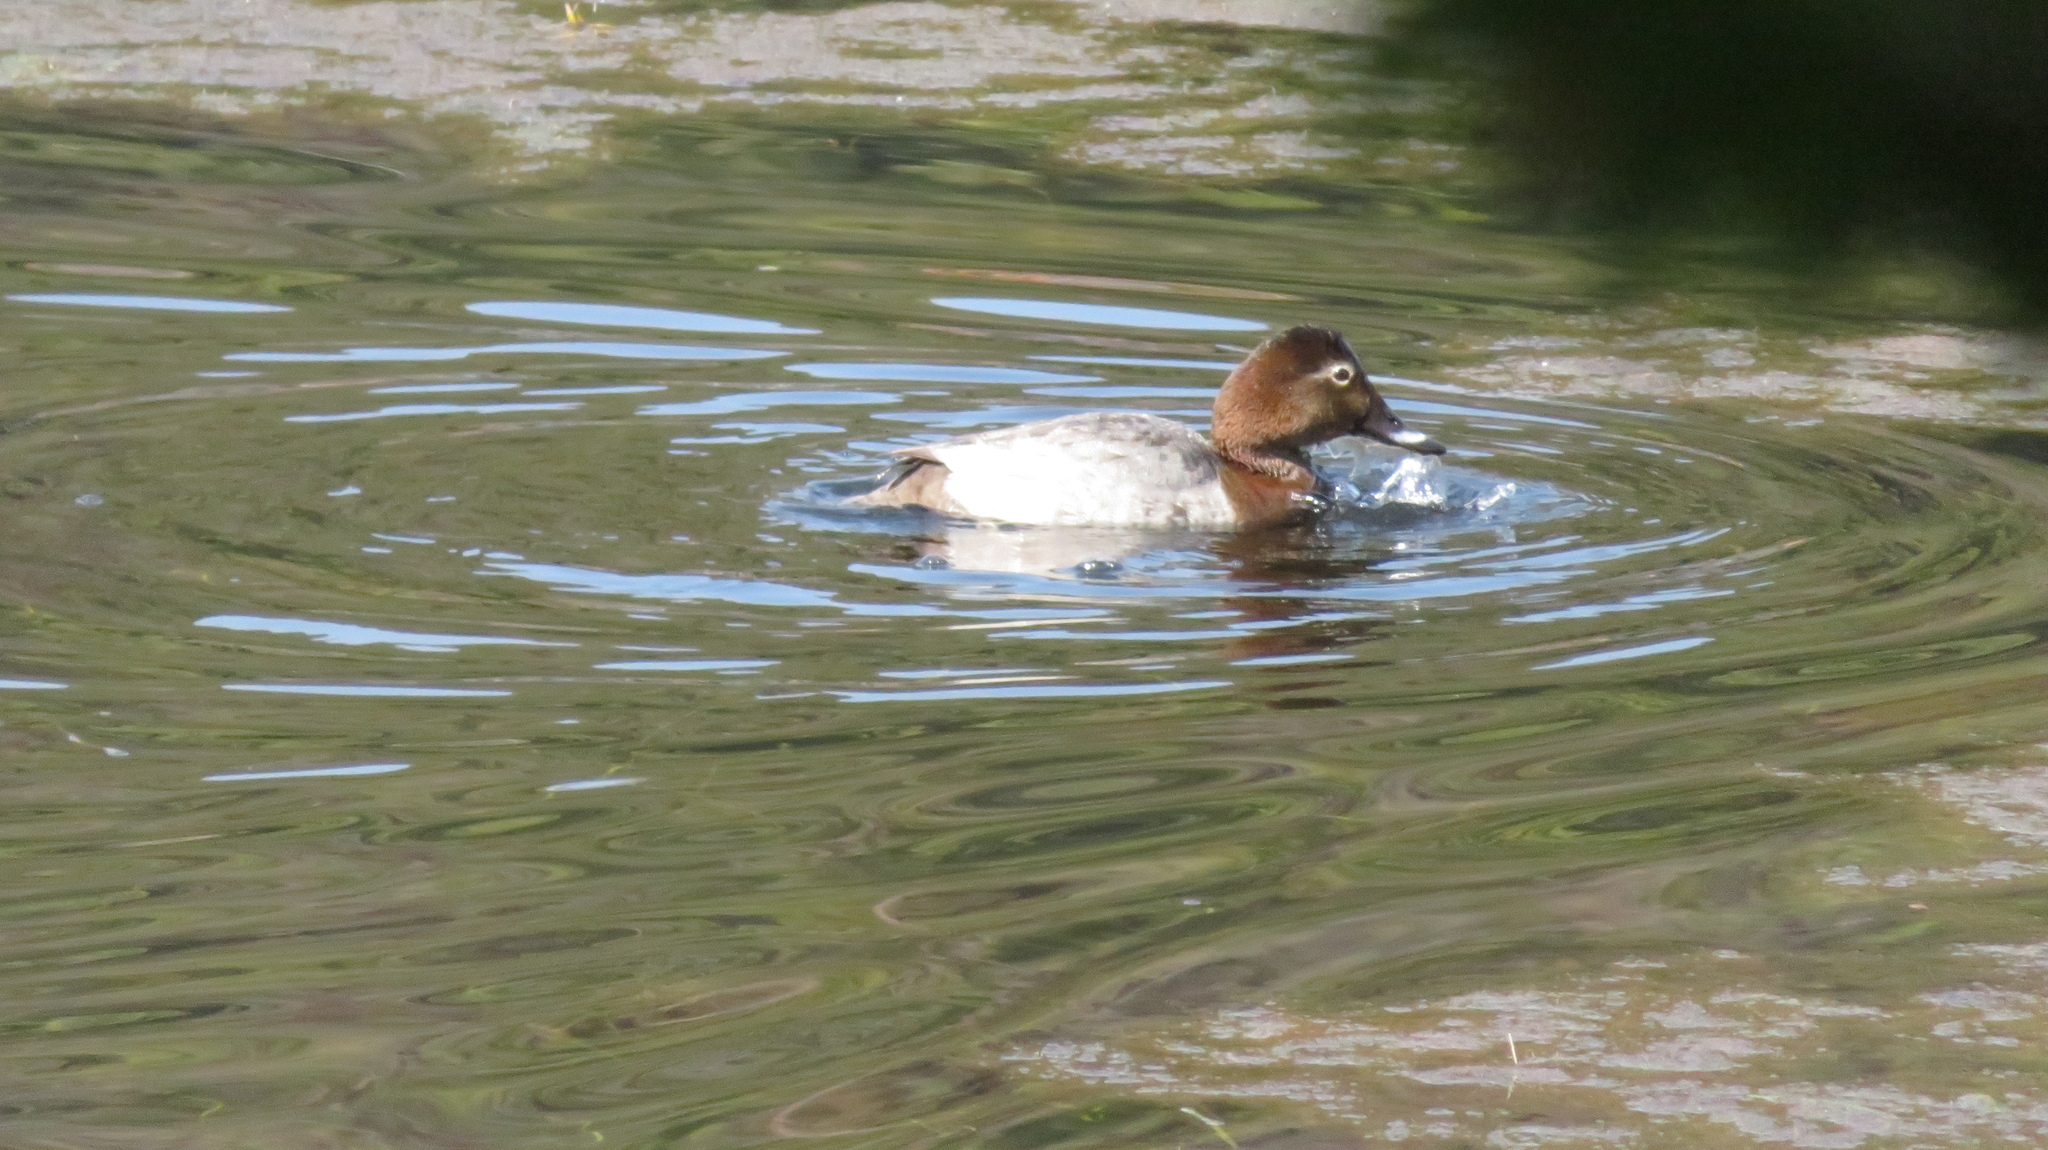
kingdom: Animalia
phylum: Chordata
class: Aves
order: Anseriformes
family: Anatidae
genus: Aythya
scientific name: Aythya ferina
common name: Common pochard
